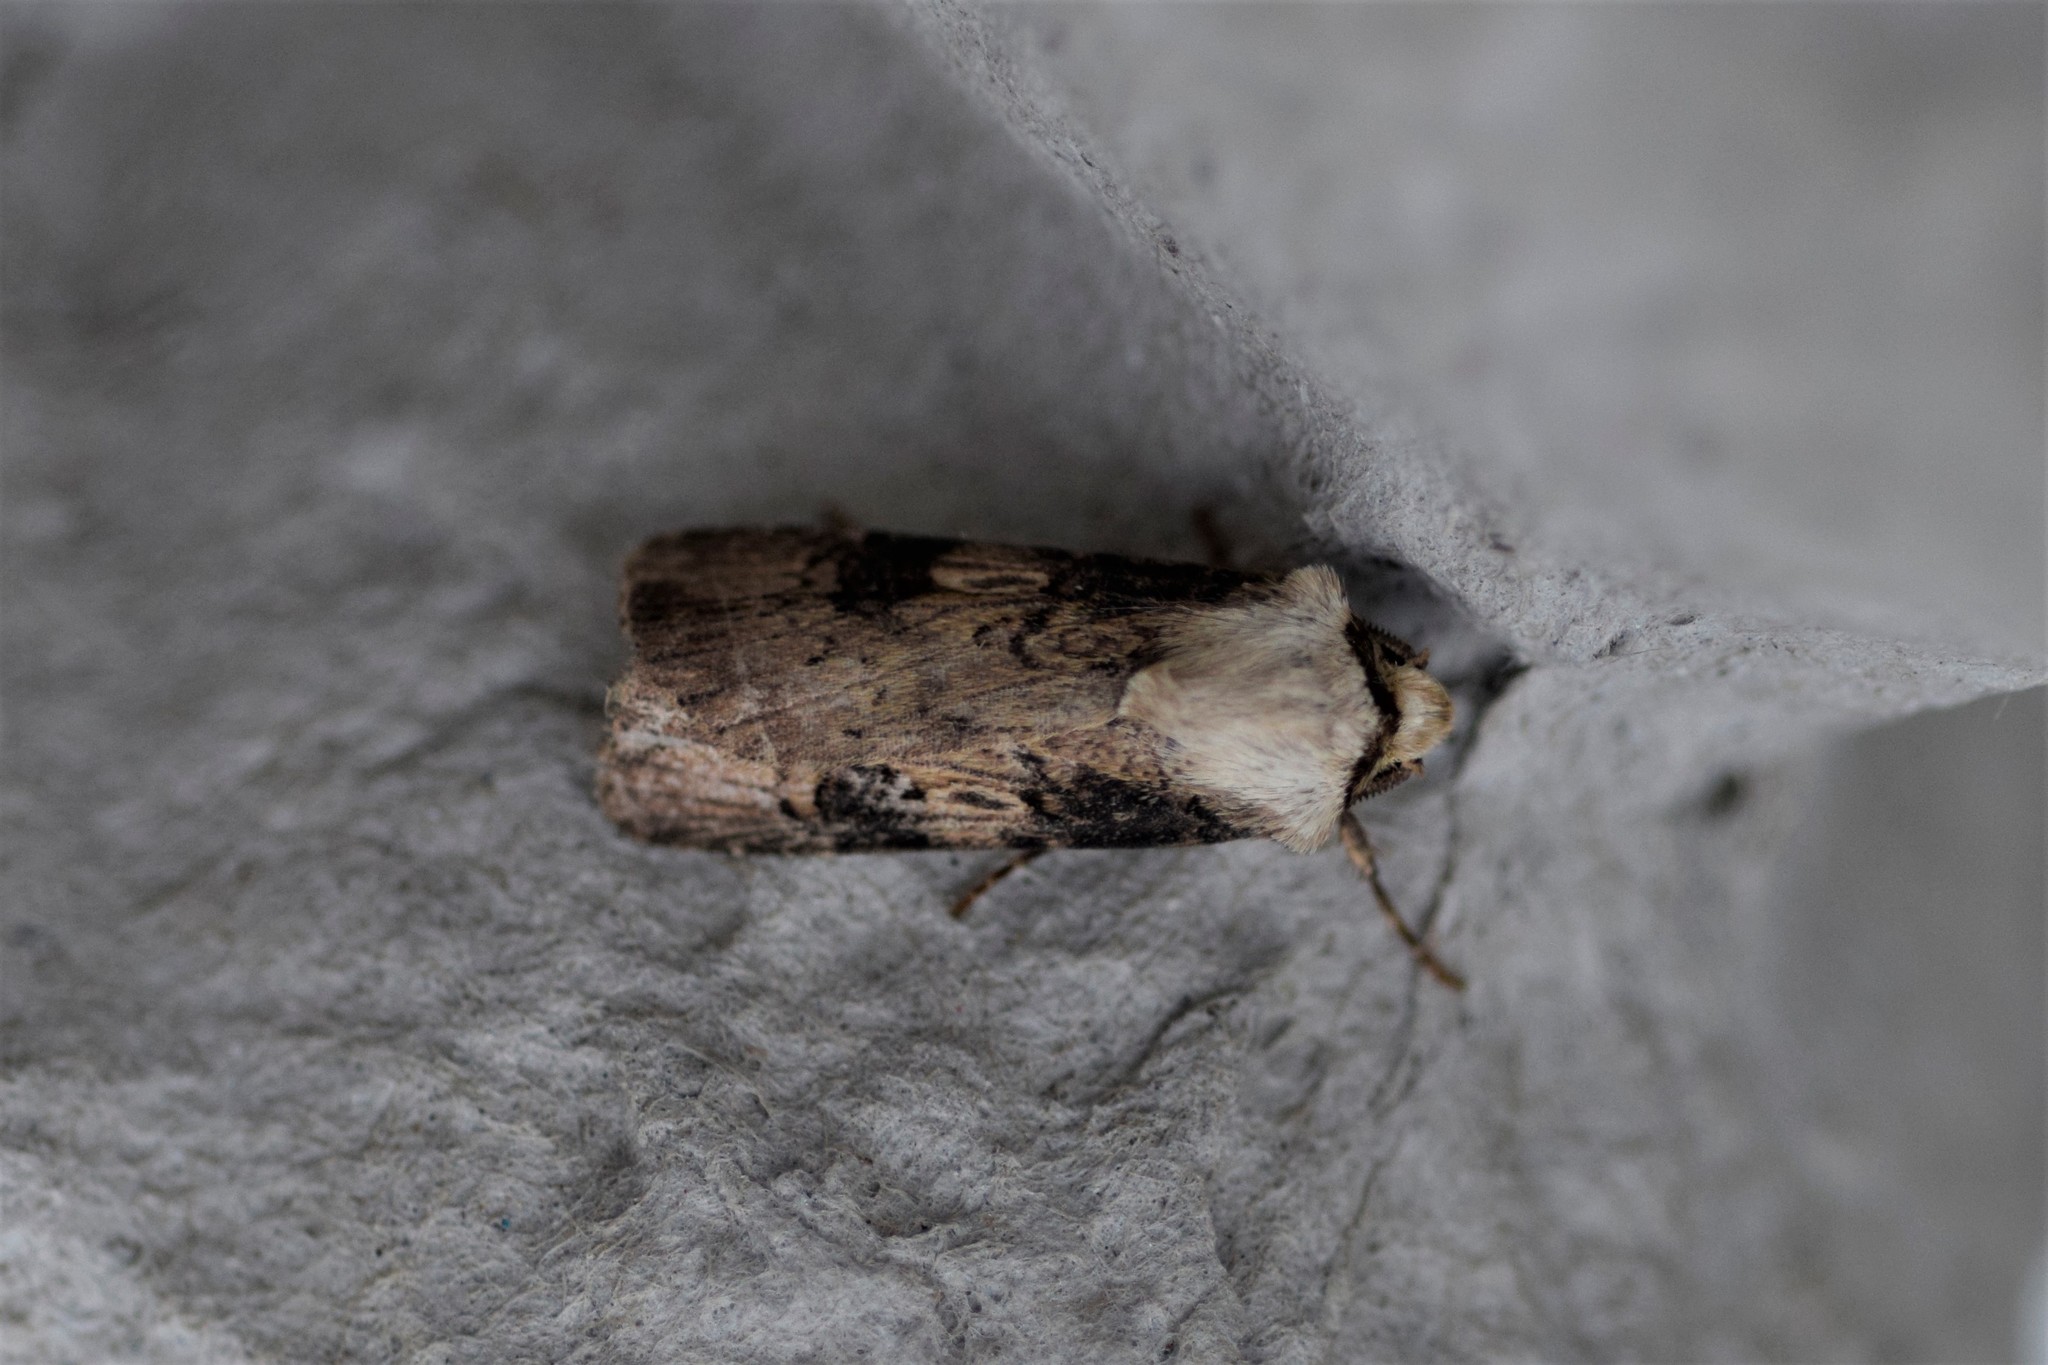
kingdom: Animalia
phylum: Arthropoda
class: Insecta
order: Lepidoptera
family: Noctuidae
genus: Agrotis
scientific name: Agrotis puta
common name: Shuttle-shaped dart
